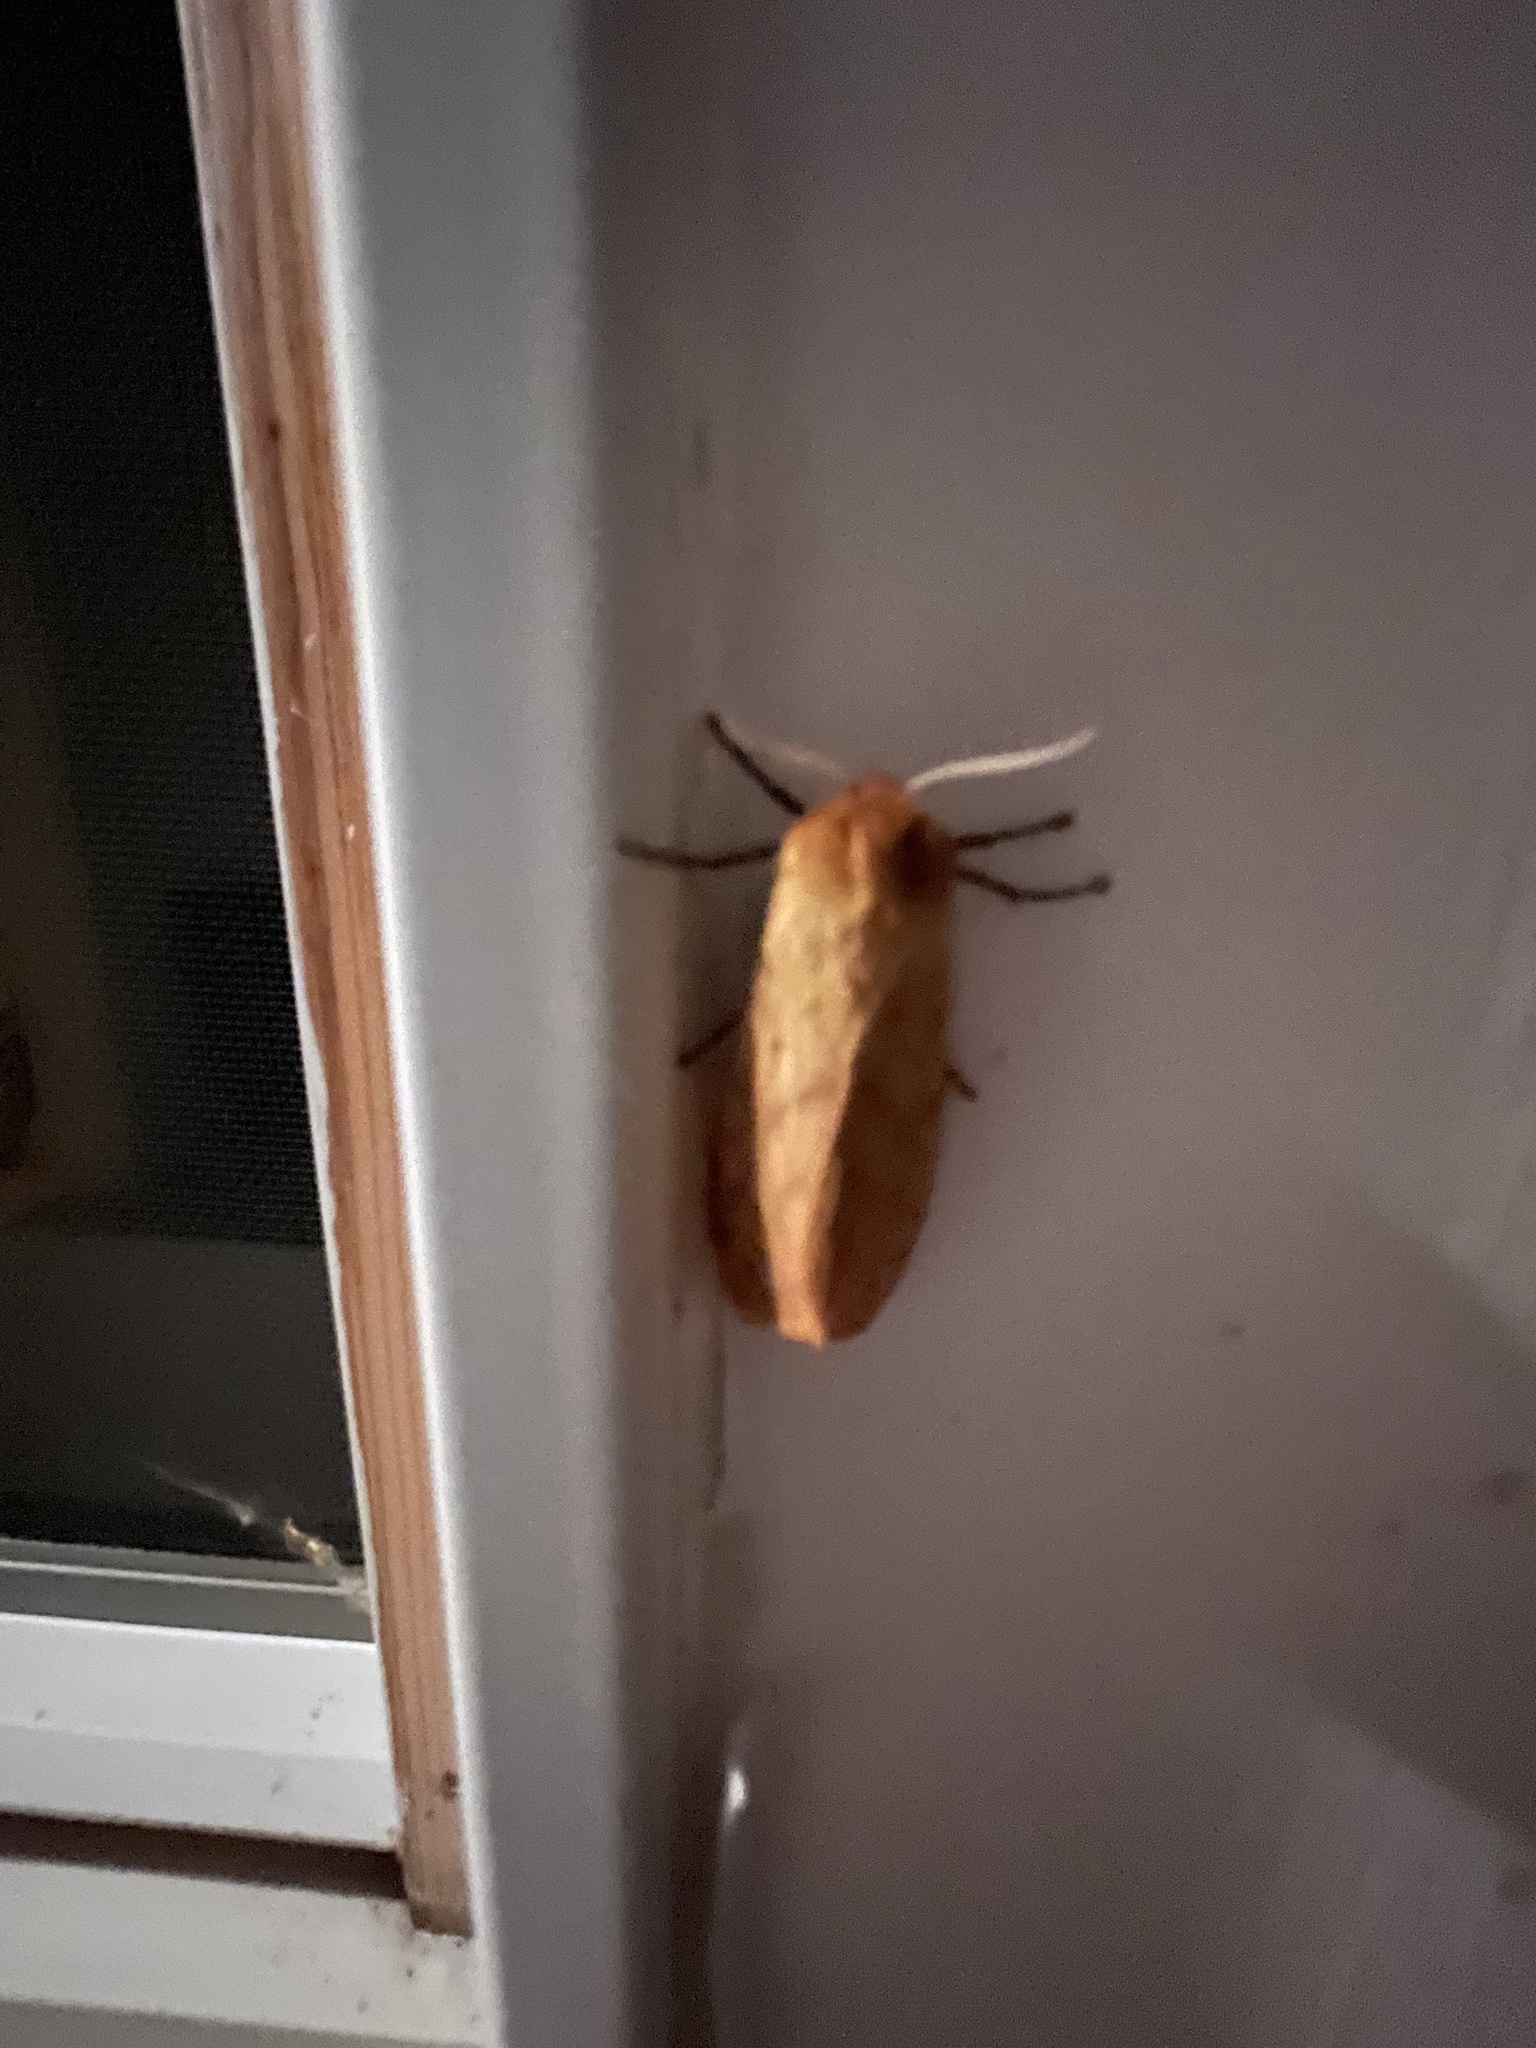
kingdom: Animalia
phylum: Arthropoda
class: Insecta
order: Lepidoptera
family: Erebidae
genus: Pyrrharctia
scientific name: Pyrrharctia isabella
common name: Isabella tiger moth
